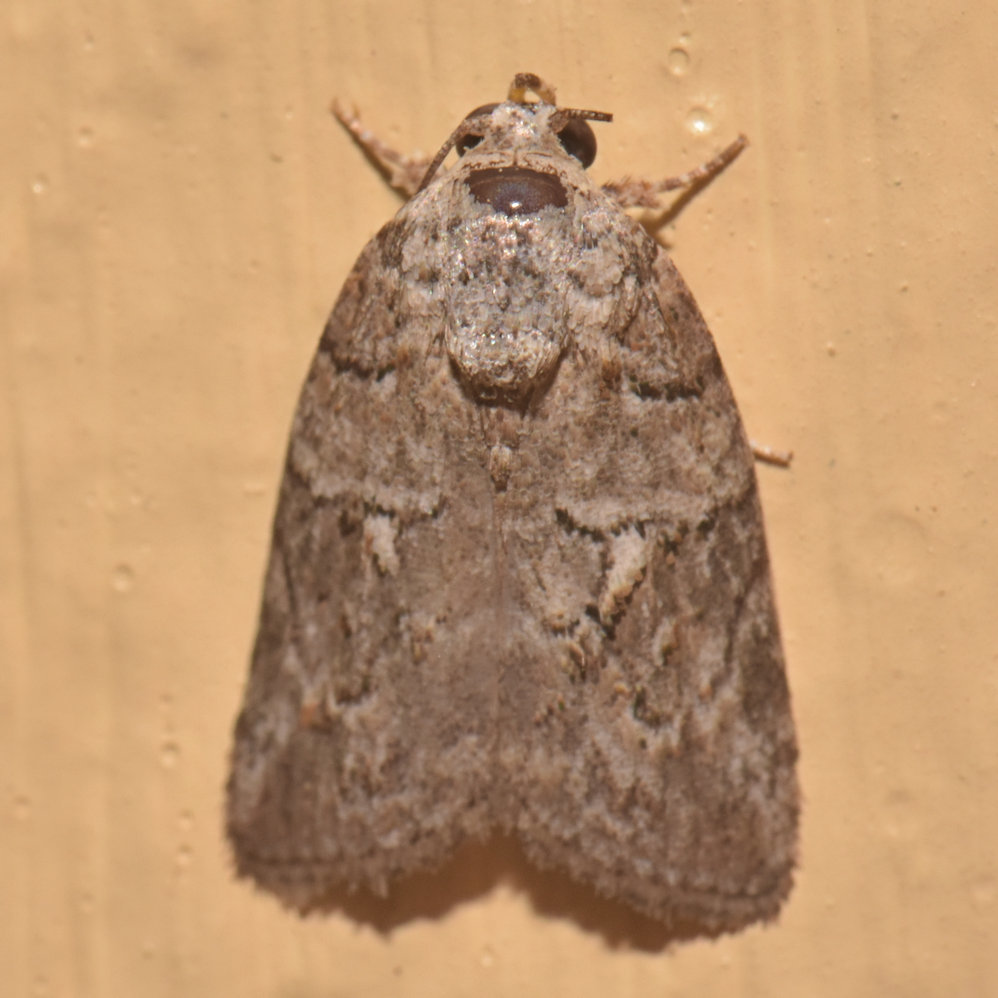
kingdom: Animalia
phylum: Arthropoda
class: Insecta
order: Lepidoptera
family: Nolidae
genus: Garella
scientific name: Garella nilotica
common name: Black-olive caterpillar moth
